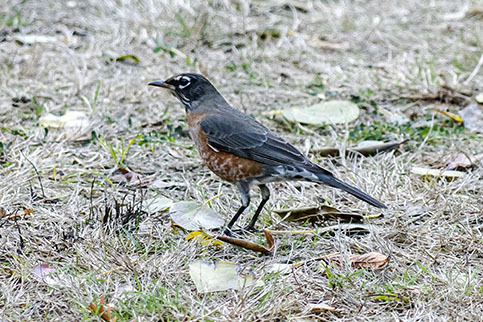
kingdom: Animalia
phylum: Chordata
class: Aves
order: Passeriformes
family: Turdidae
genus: Turdus
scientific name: Turdus migratorius
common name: American robin
